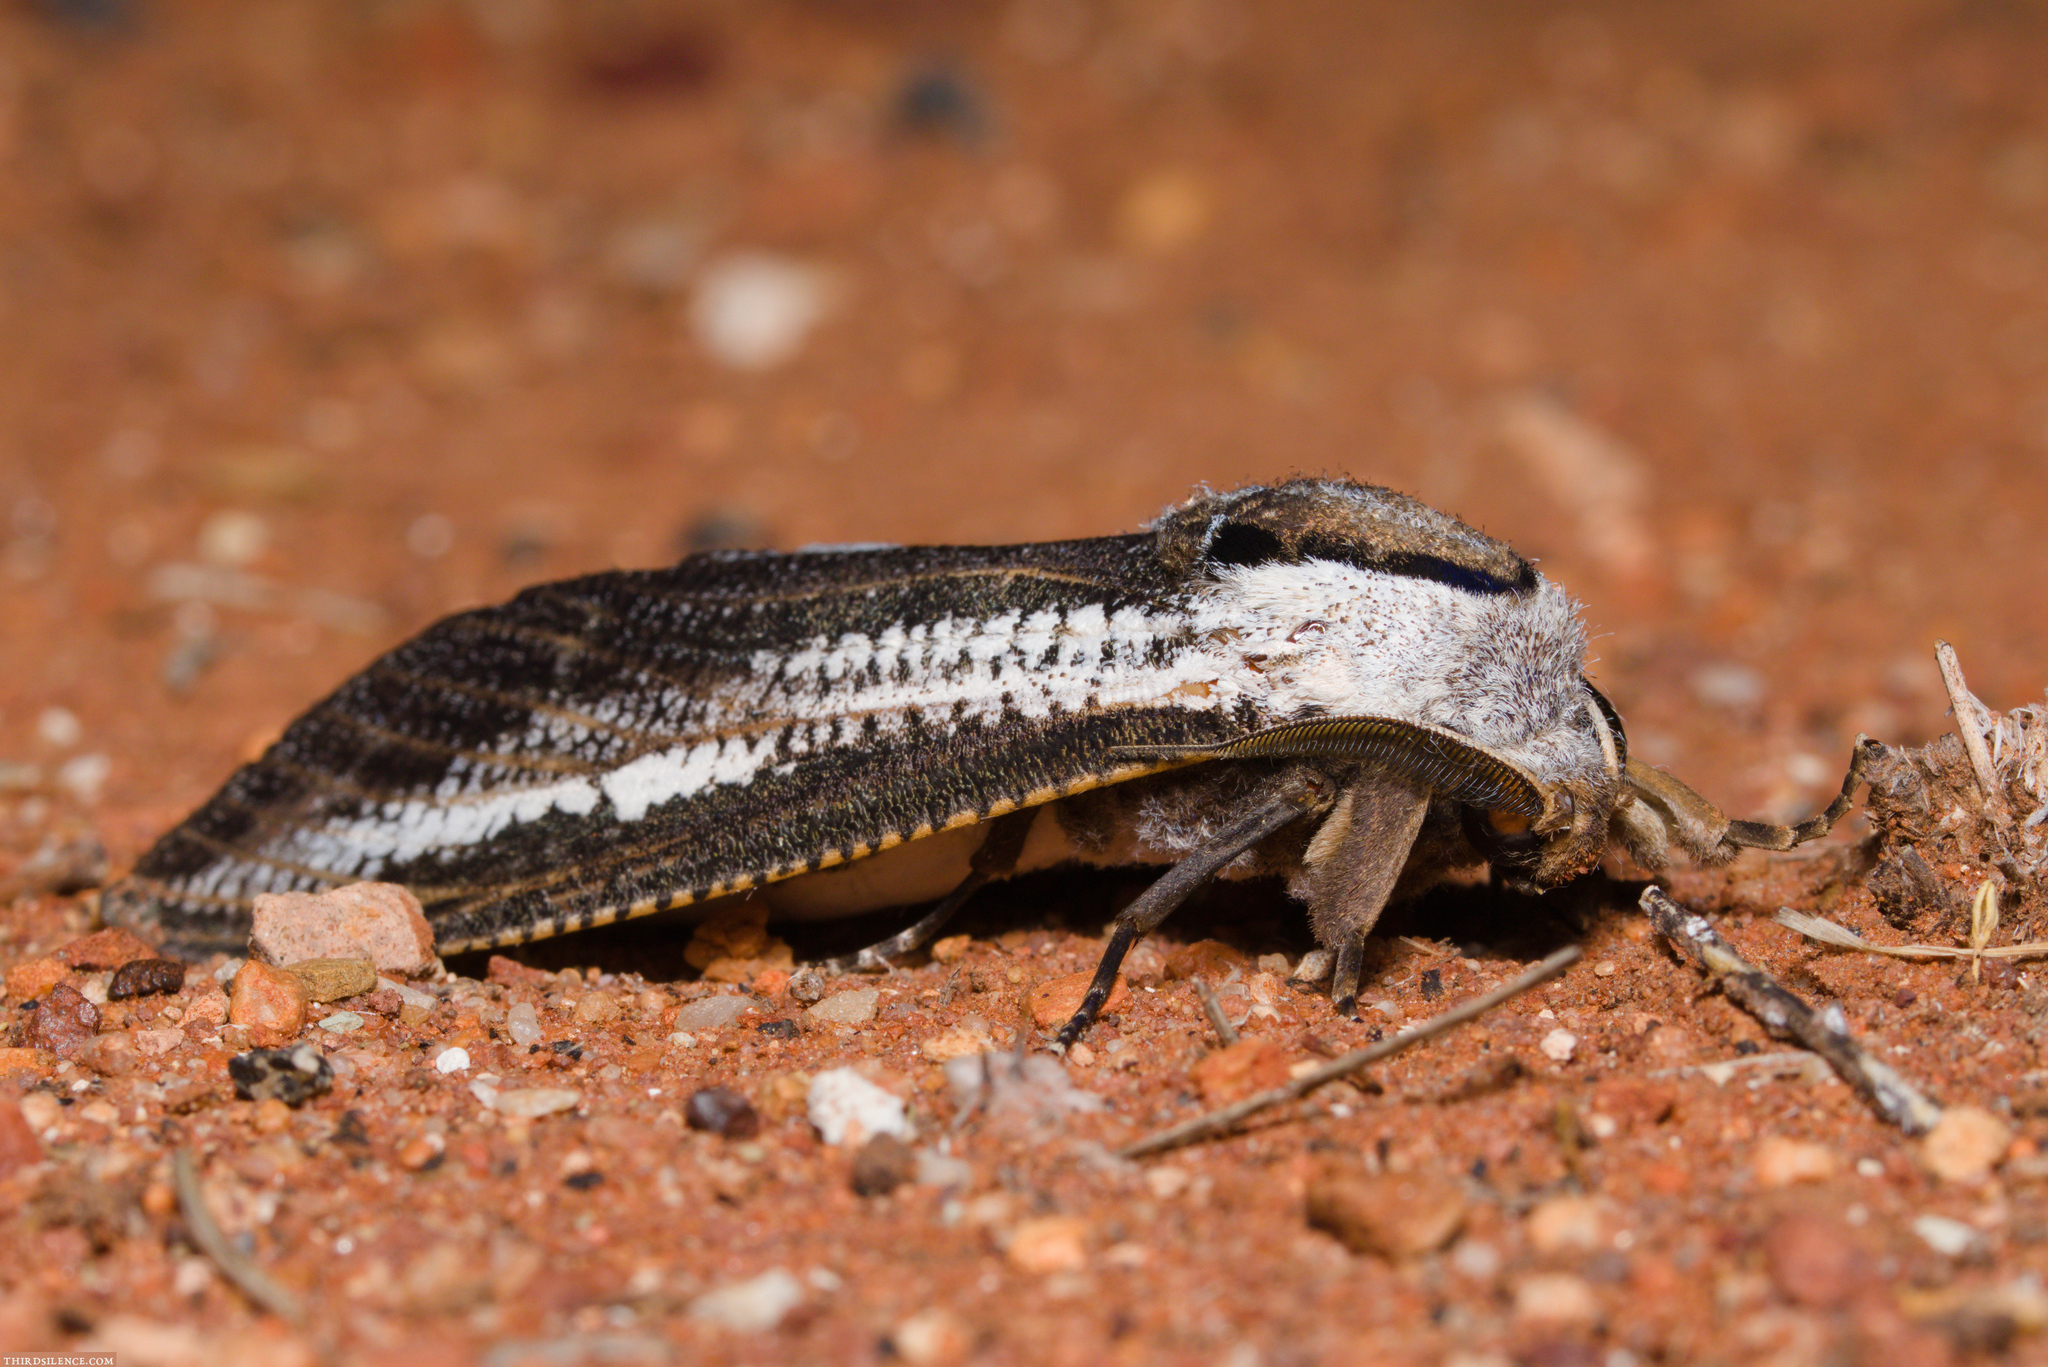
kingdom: Animalia
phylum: Arthropoda
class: Insecta
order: Lepidoptera
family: Cossidae
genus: Endoxyla
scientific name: Endoxyla leucomochla
